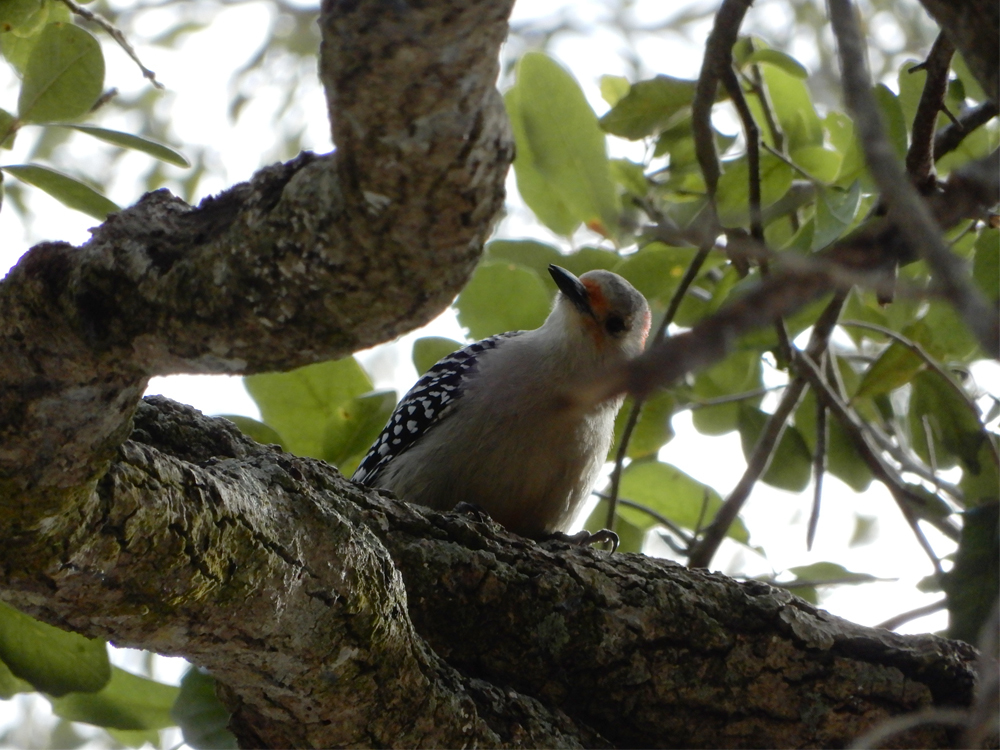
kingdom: Animalia
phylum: Chordata
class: Aves
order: Piciformes
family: Picidae
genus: Melanerpes
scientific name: Melanerpes carolinus
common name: Red-bellied woodpecker
